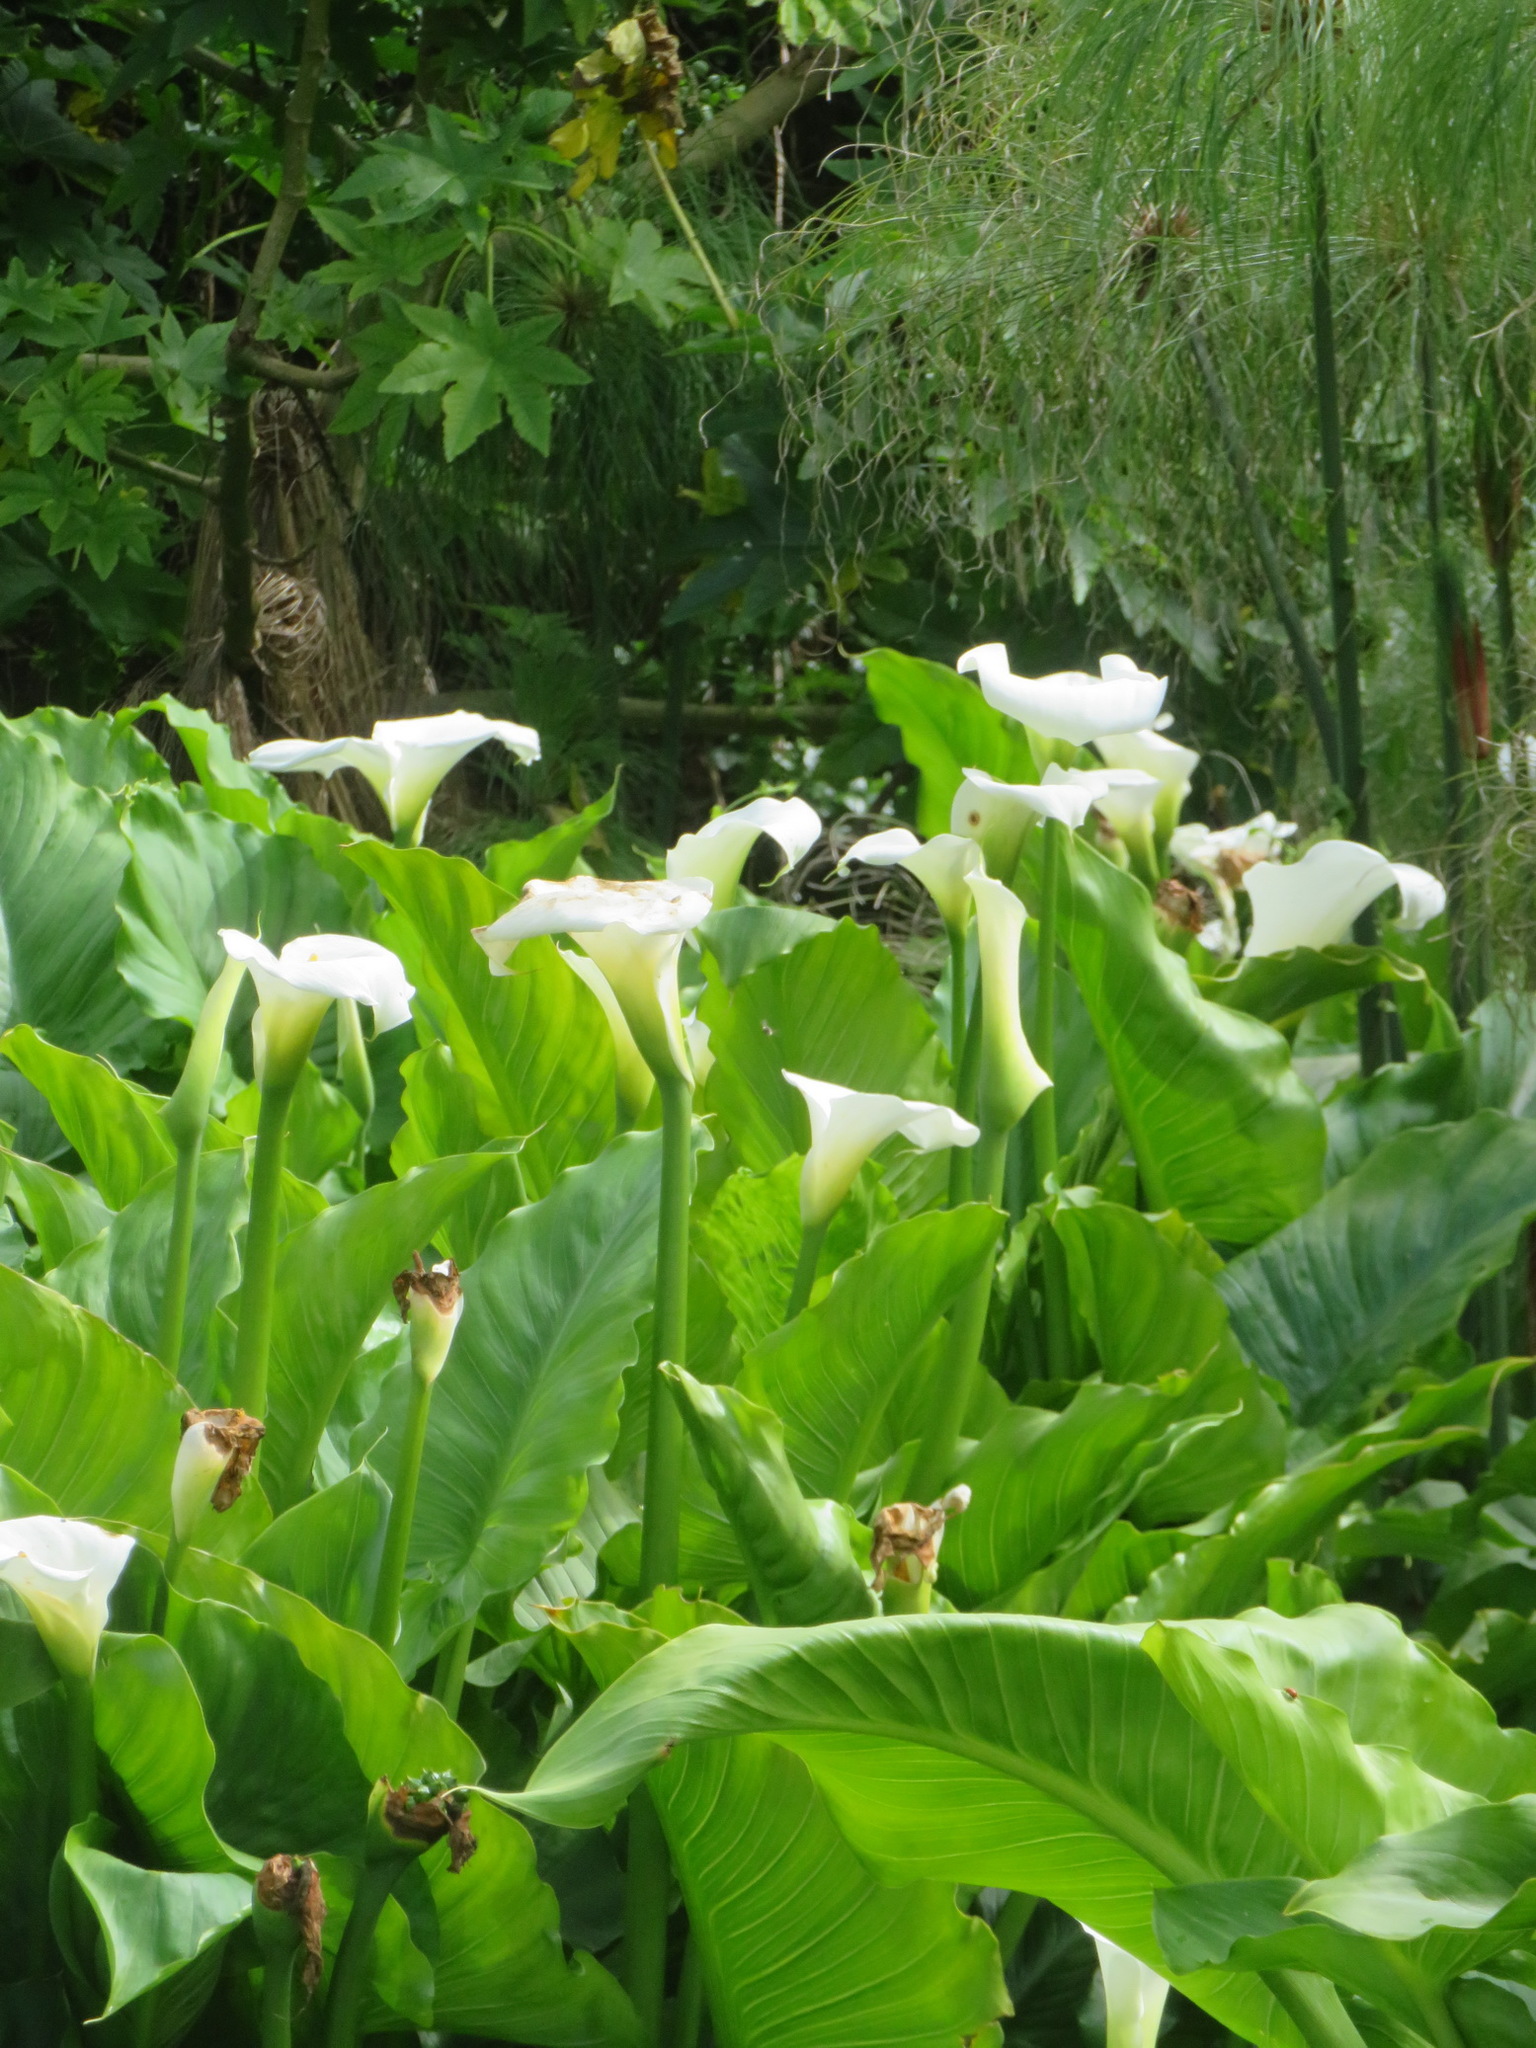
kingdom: Plantae
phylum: Tracheophyta
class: Liliopsida
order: Alismatales
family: Araceae
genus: Zantedeschia
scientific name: Zantedeschia aethiopica
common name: Altar-lily
